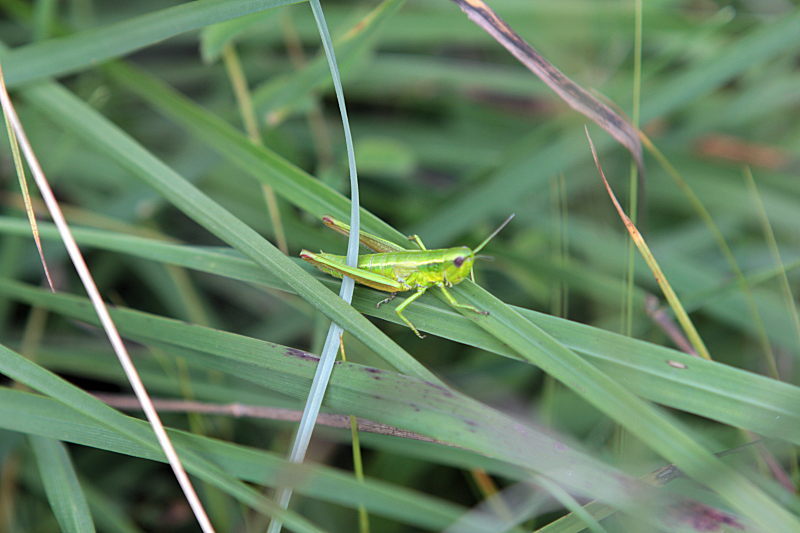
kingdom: Animalia
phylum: Arthropoda
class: Insecta
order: Orthoptera
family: Acrididae
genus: Euthystira
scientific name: Euthystira brachyptera
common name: Small gold grasshopper
